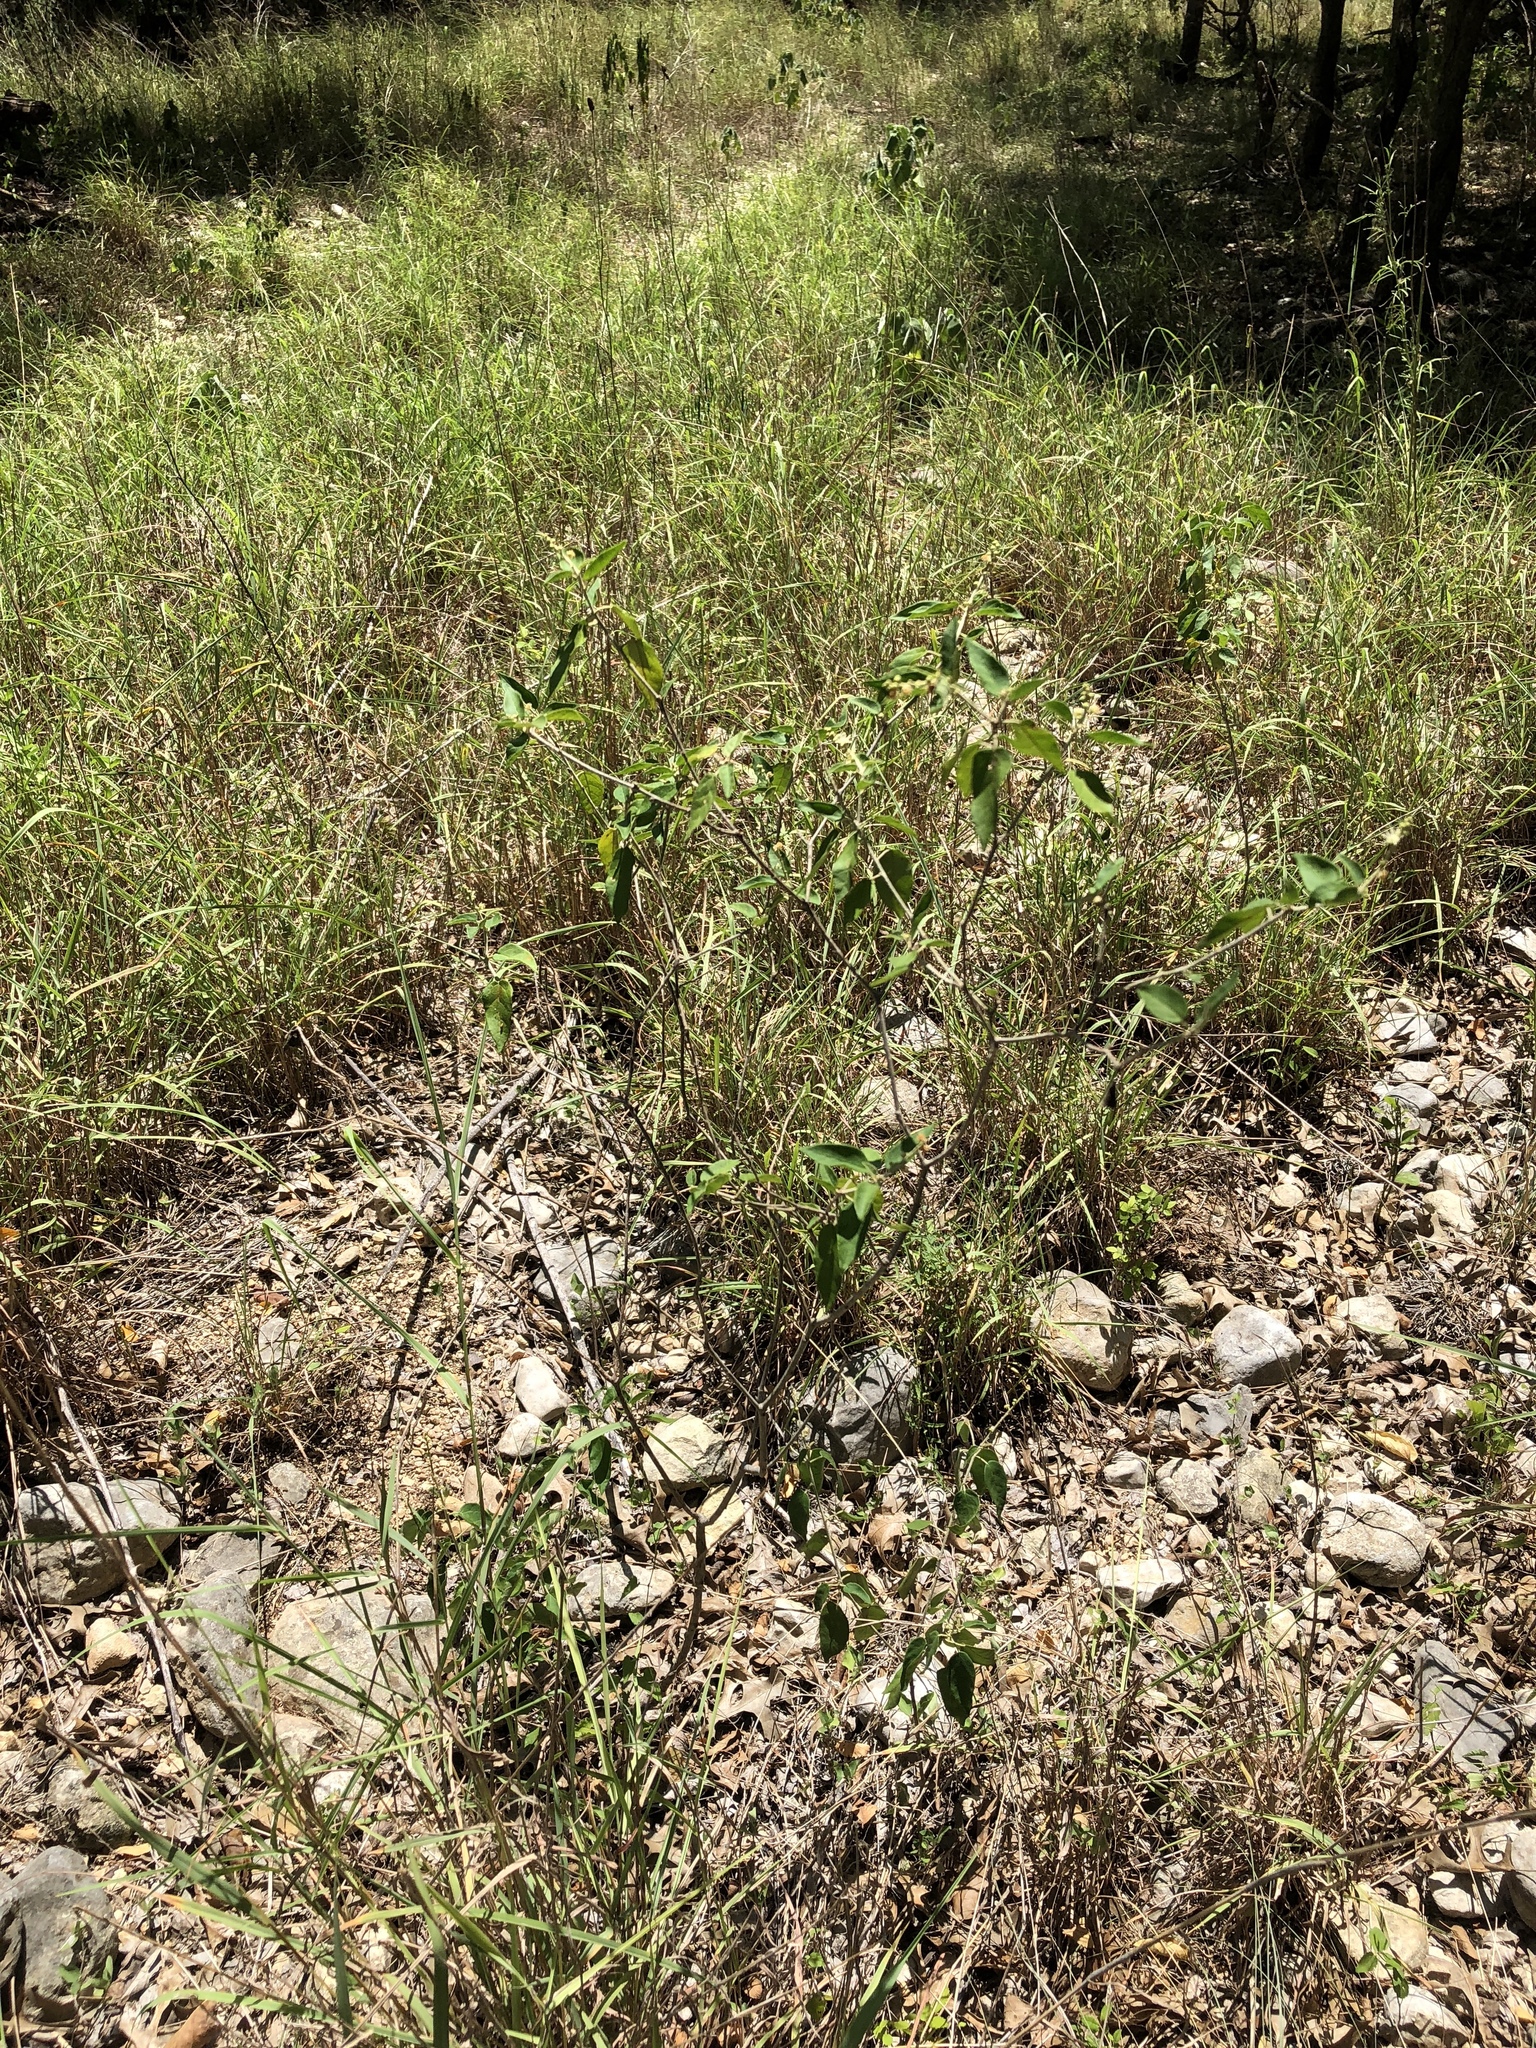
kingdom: Plantae
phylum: Tracheophyta
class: Magnoliopsida
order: Malpighiales
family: Euphorbiaceae
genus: Croton
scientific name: Croton fruticulosus
